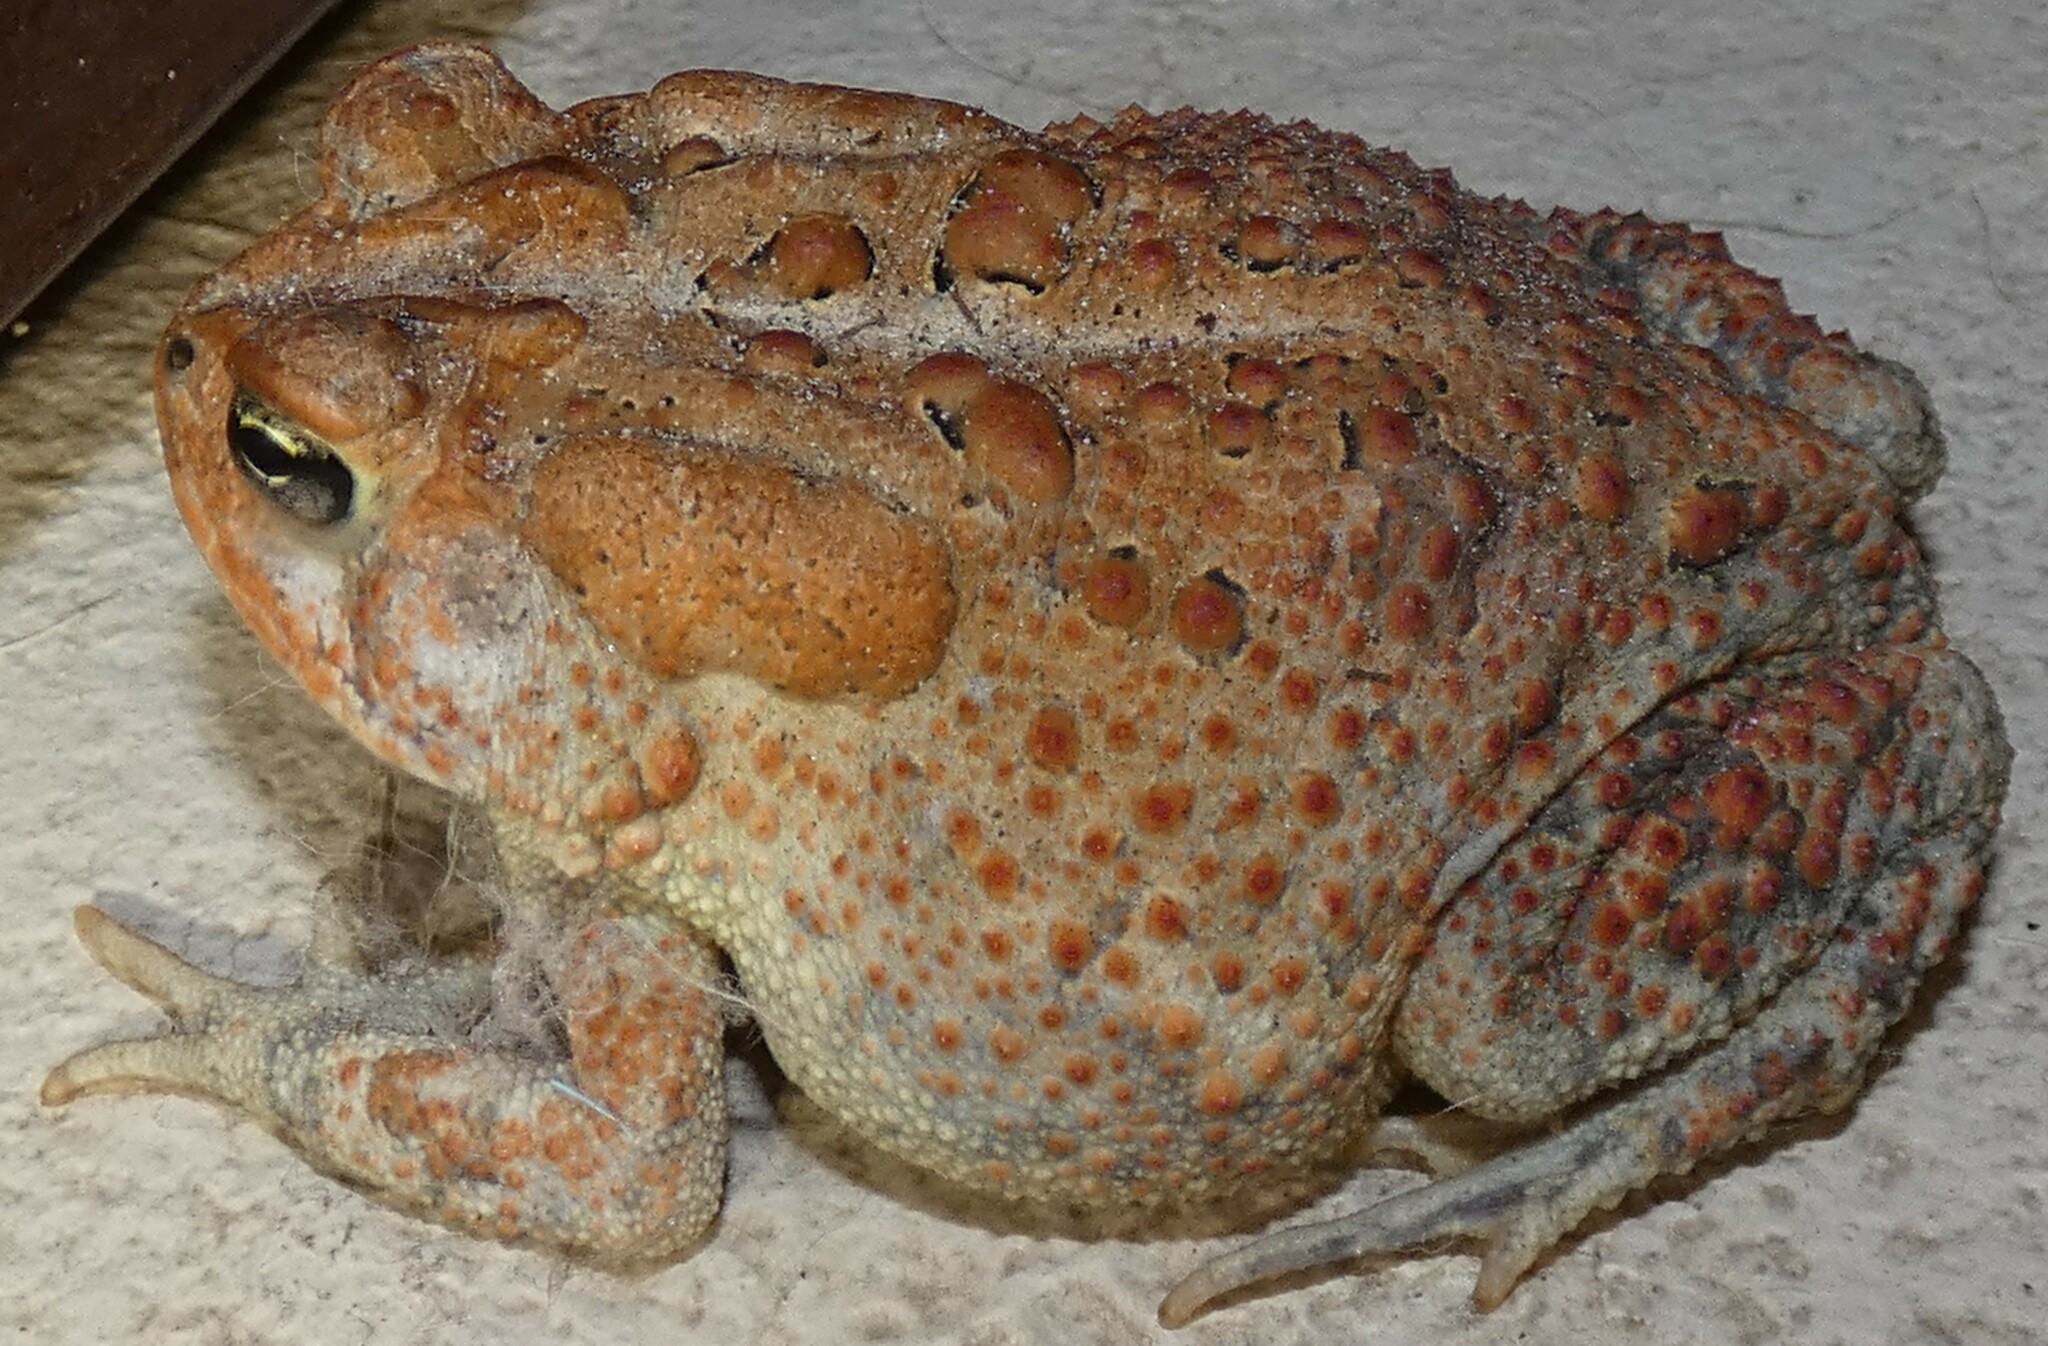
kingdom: Animalia
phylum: Chordata
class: Amphibia
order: Anura
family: Bufonidae
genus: Anaxyrus
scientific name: Anaxyrus terrestris
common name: Southern toad
